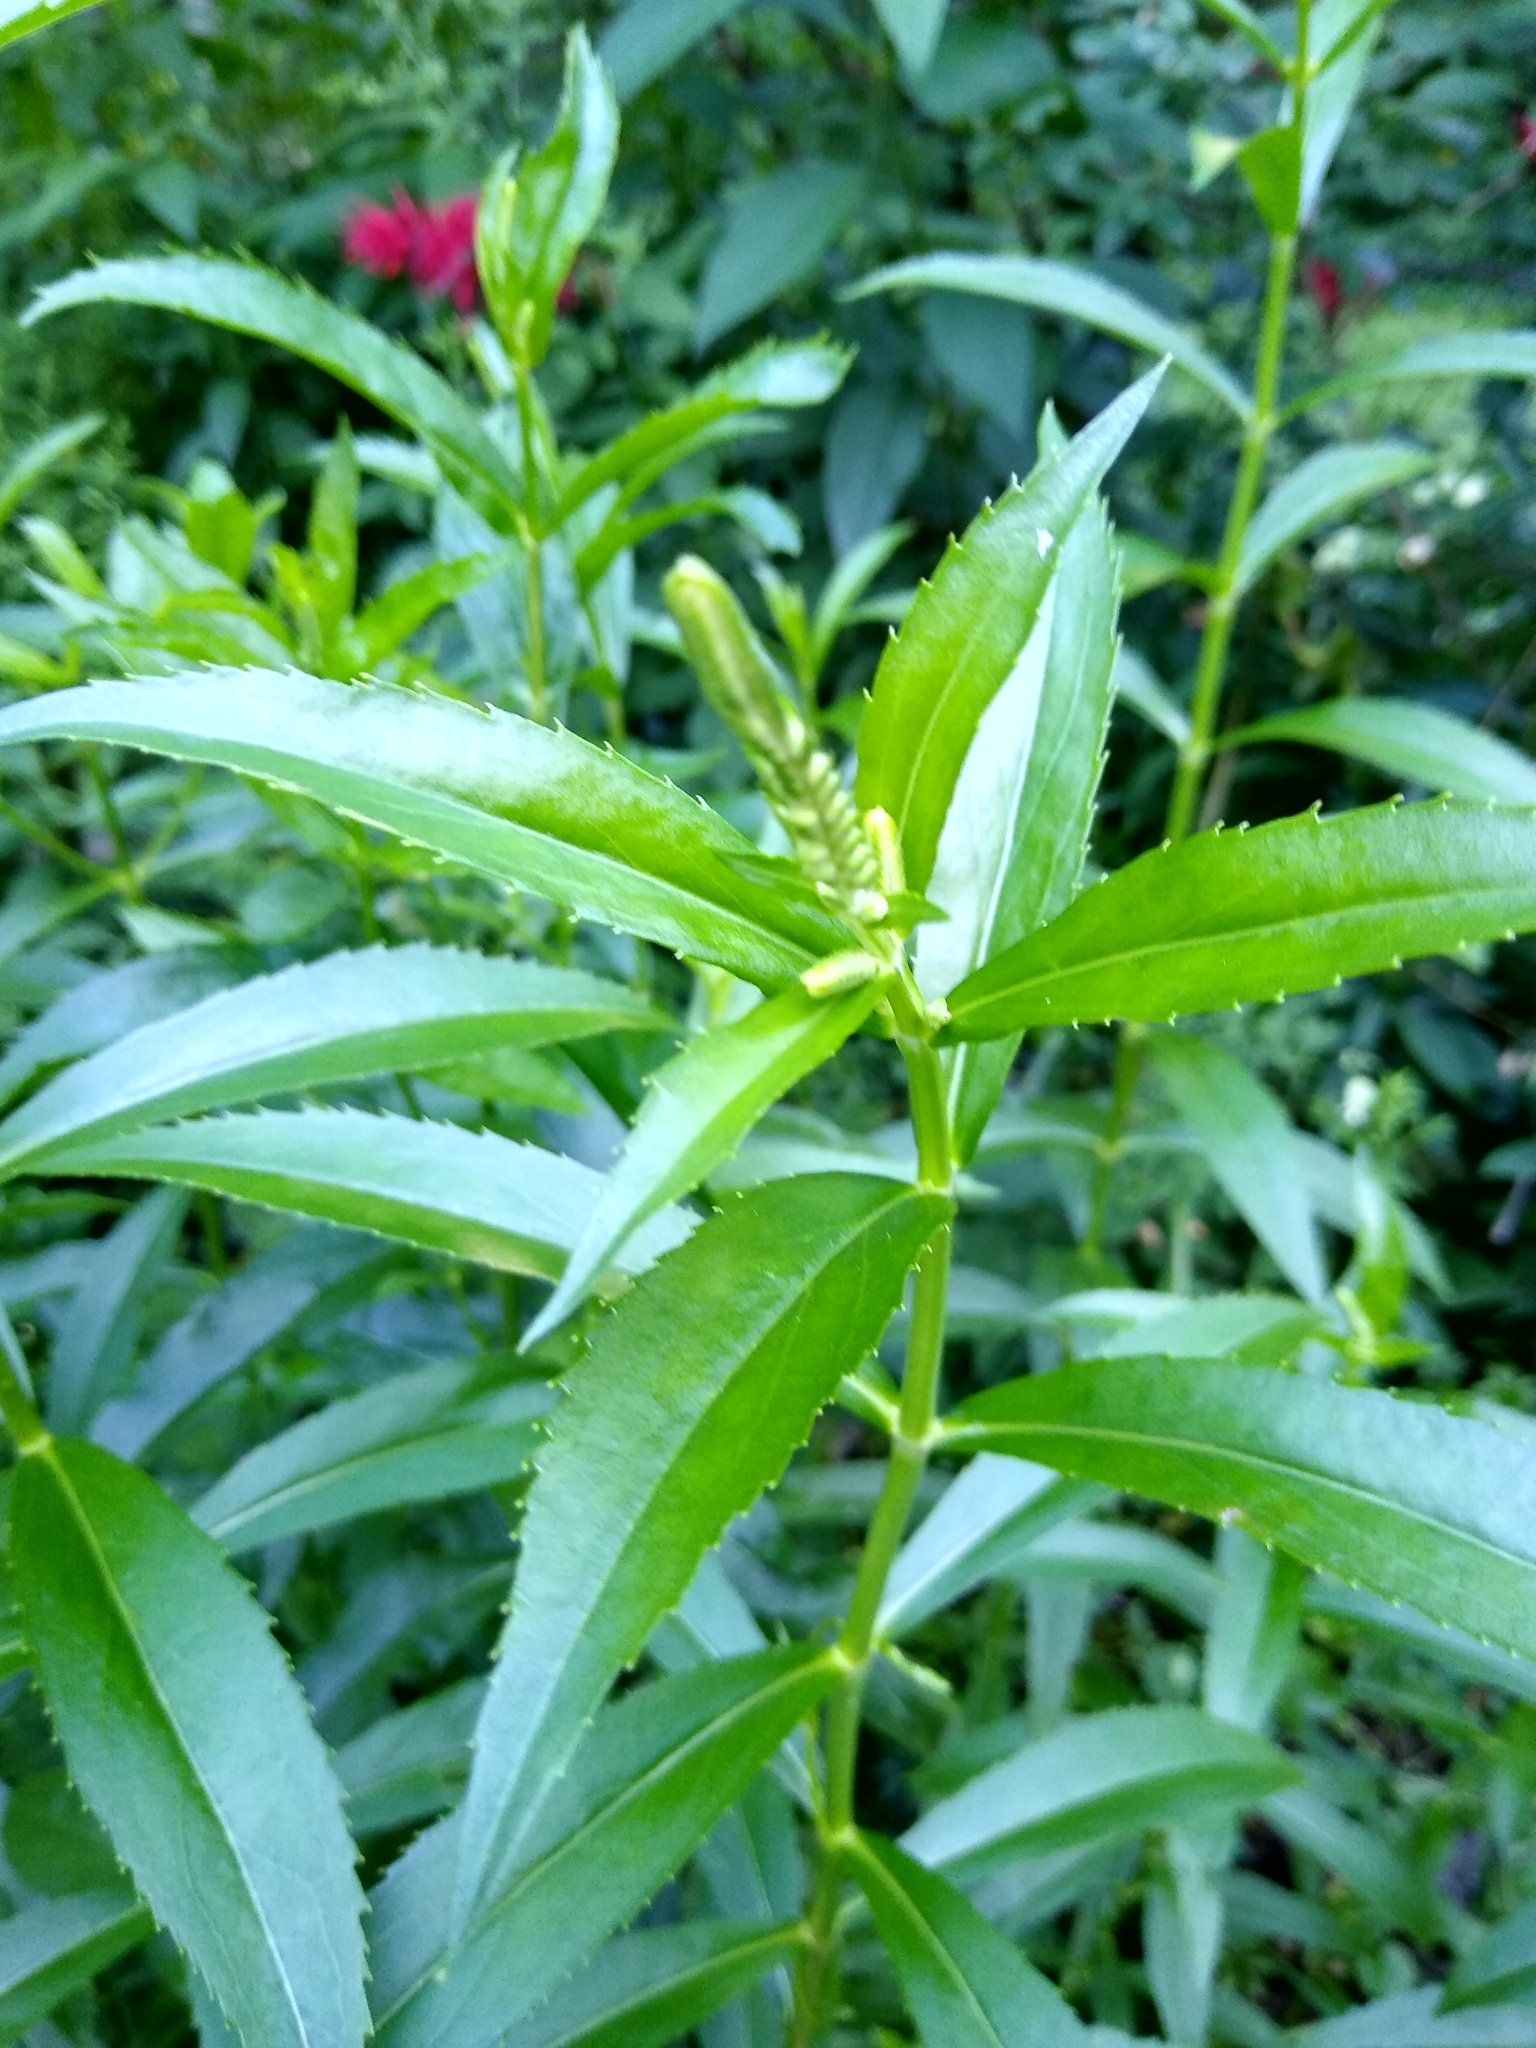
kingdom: Plantae
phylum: Tracheophyta
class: Magnoliopsida
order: Lamiales
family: Lamiaceae
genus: Physostegia
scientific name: Physostegia virginiana
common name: Obedient-plant
